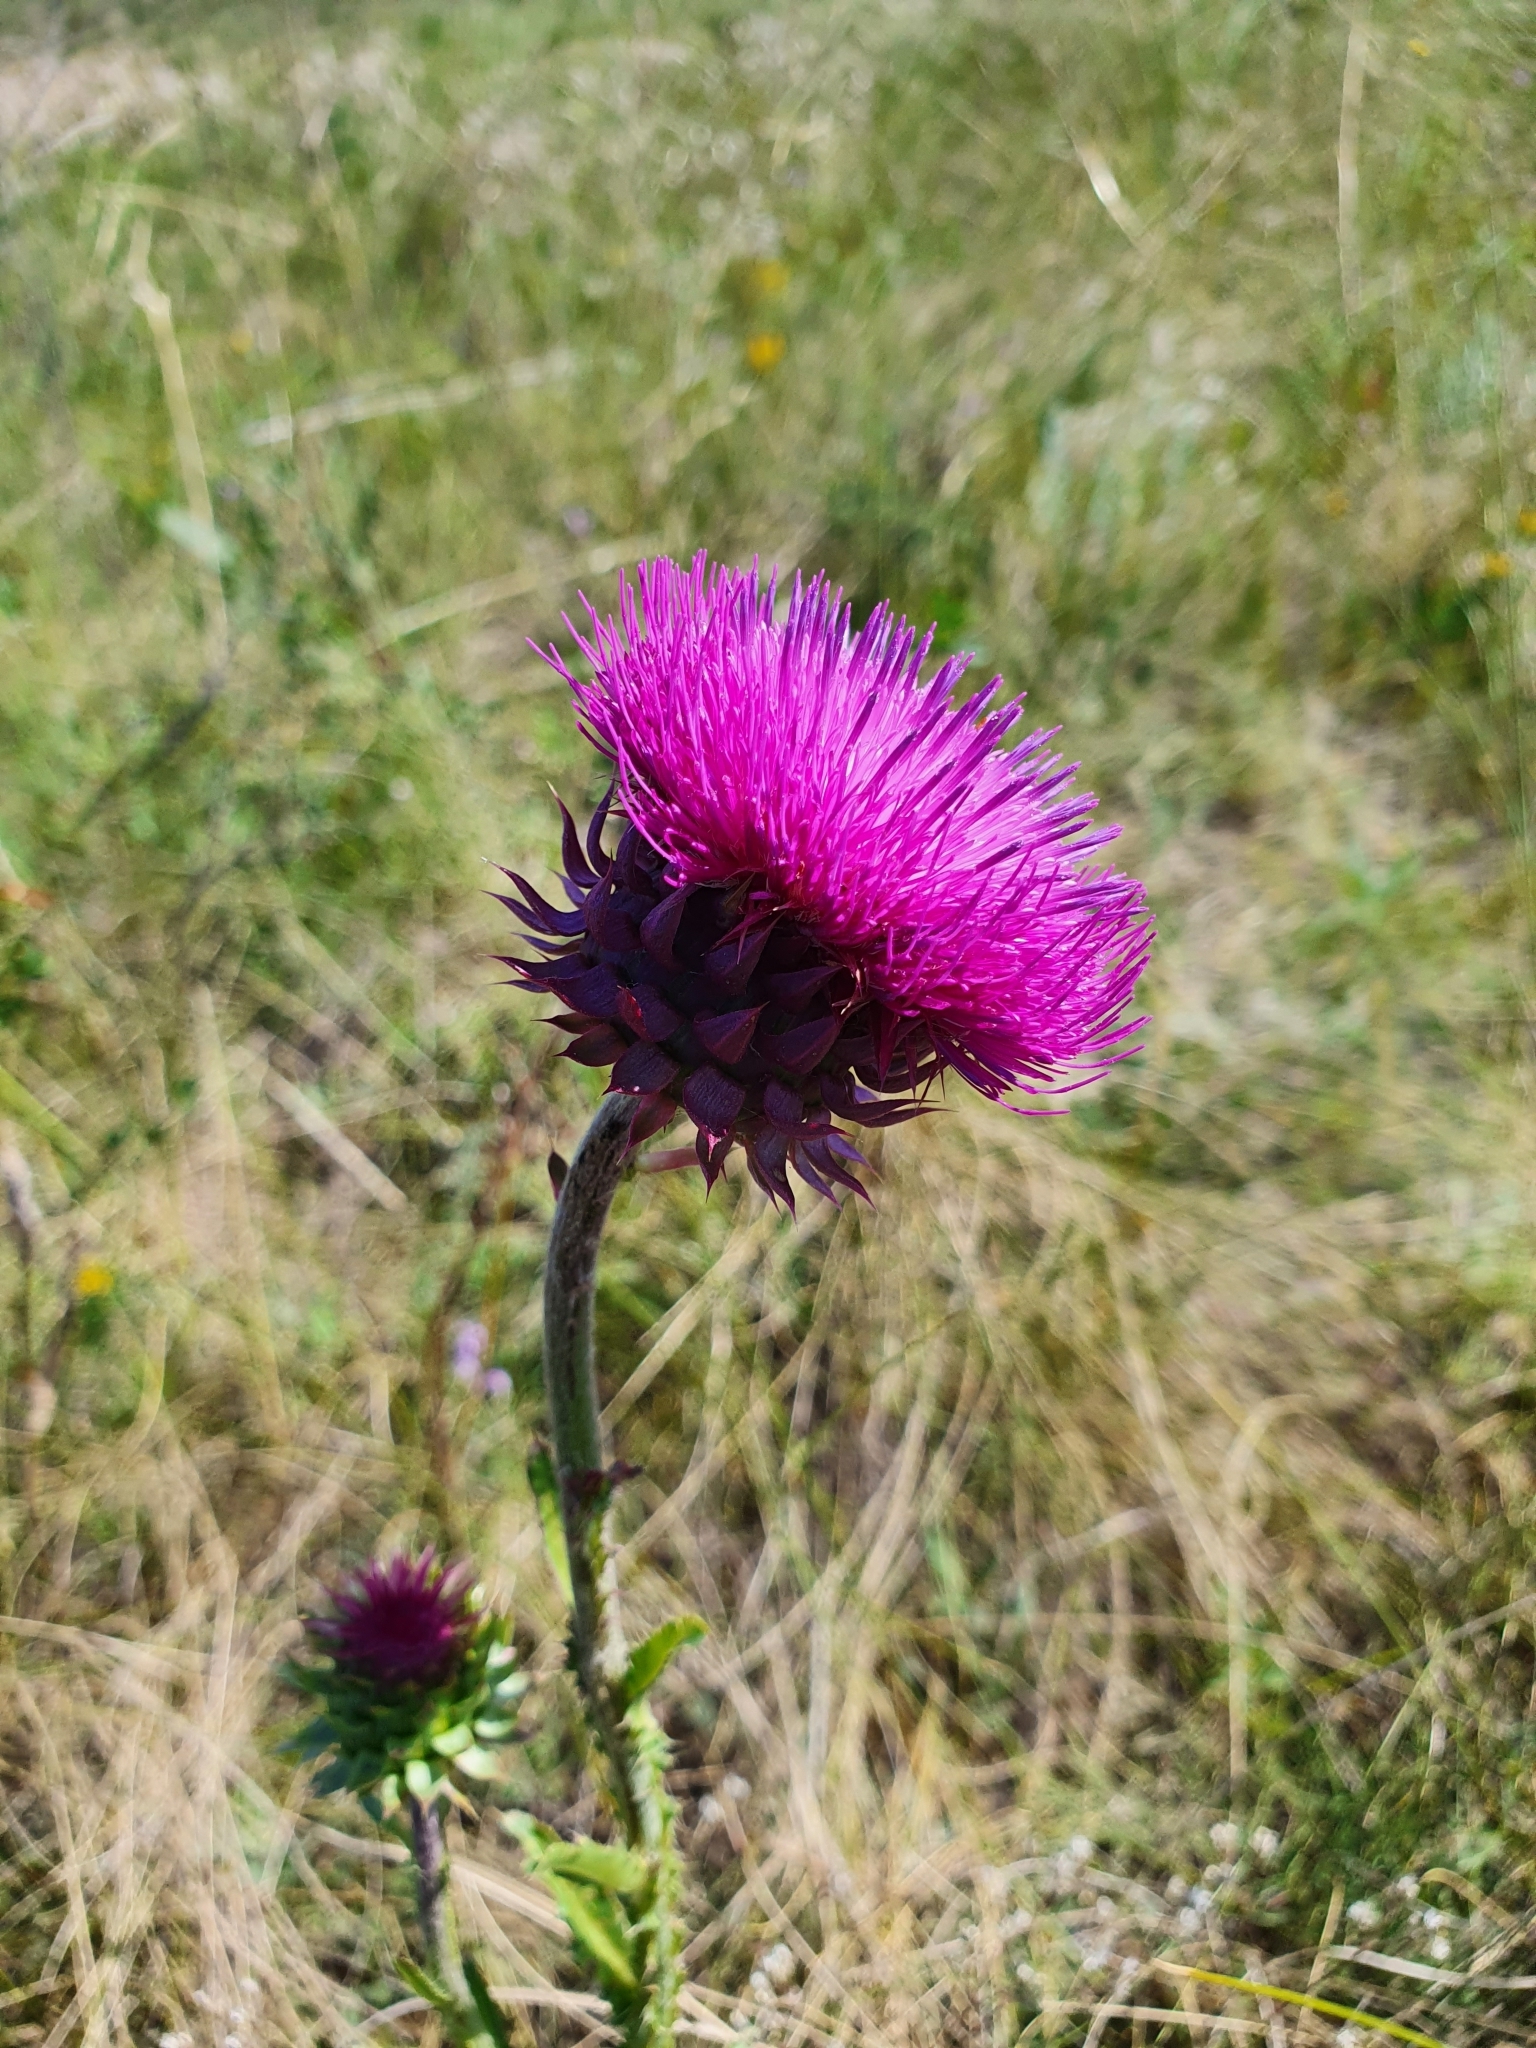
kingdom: Plantae
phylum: Tracheophyta
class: Magnoliopsida
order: Asterales
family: Asteraceae
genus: Carduus
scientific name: Carduus nutans
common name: Musk thistle
